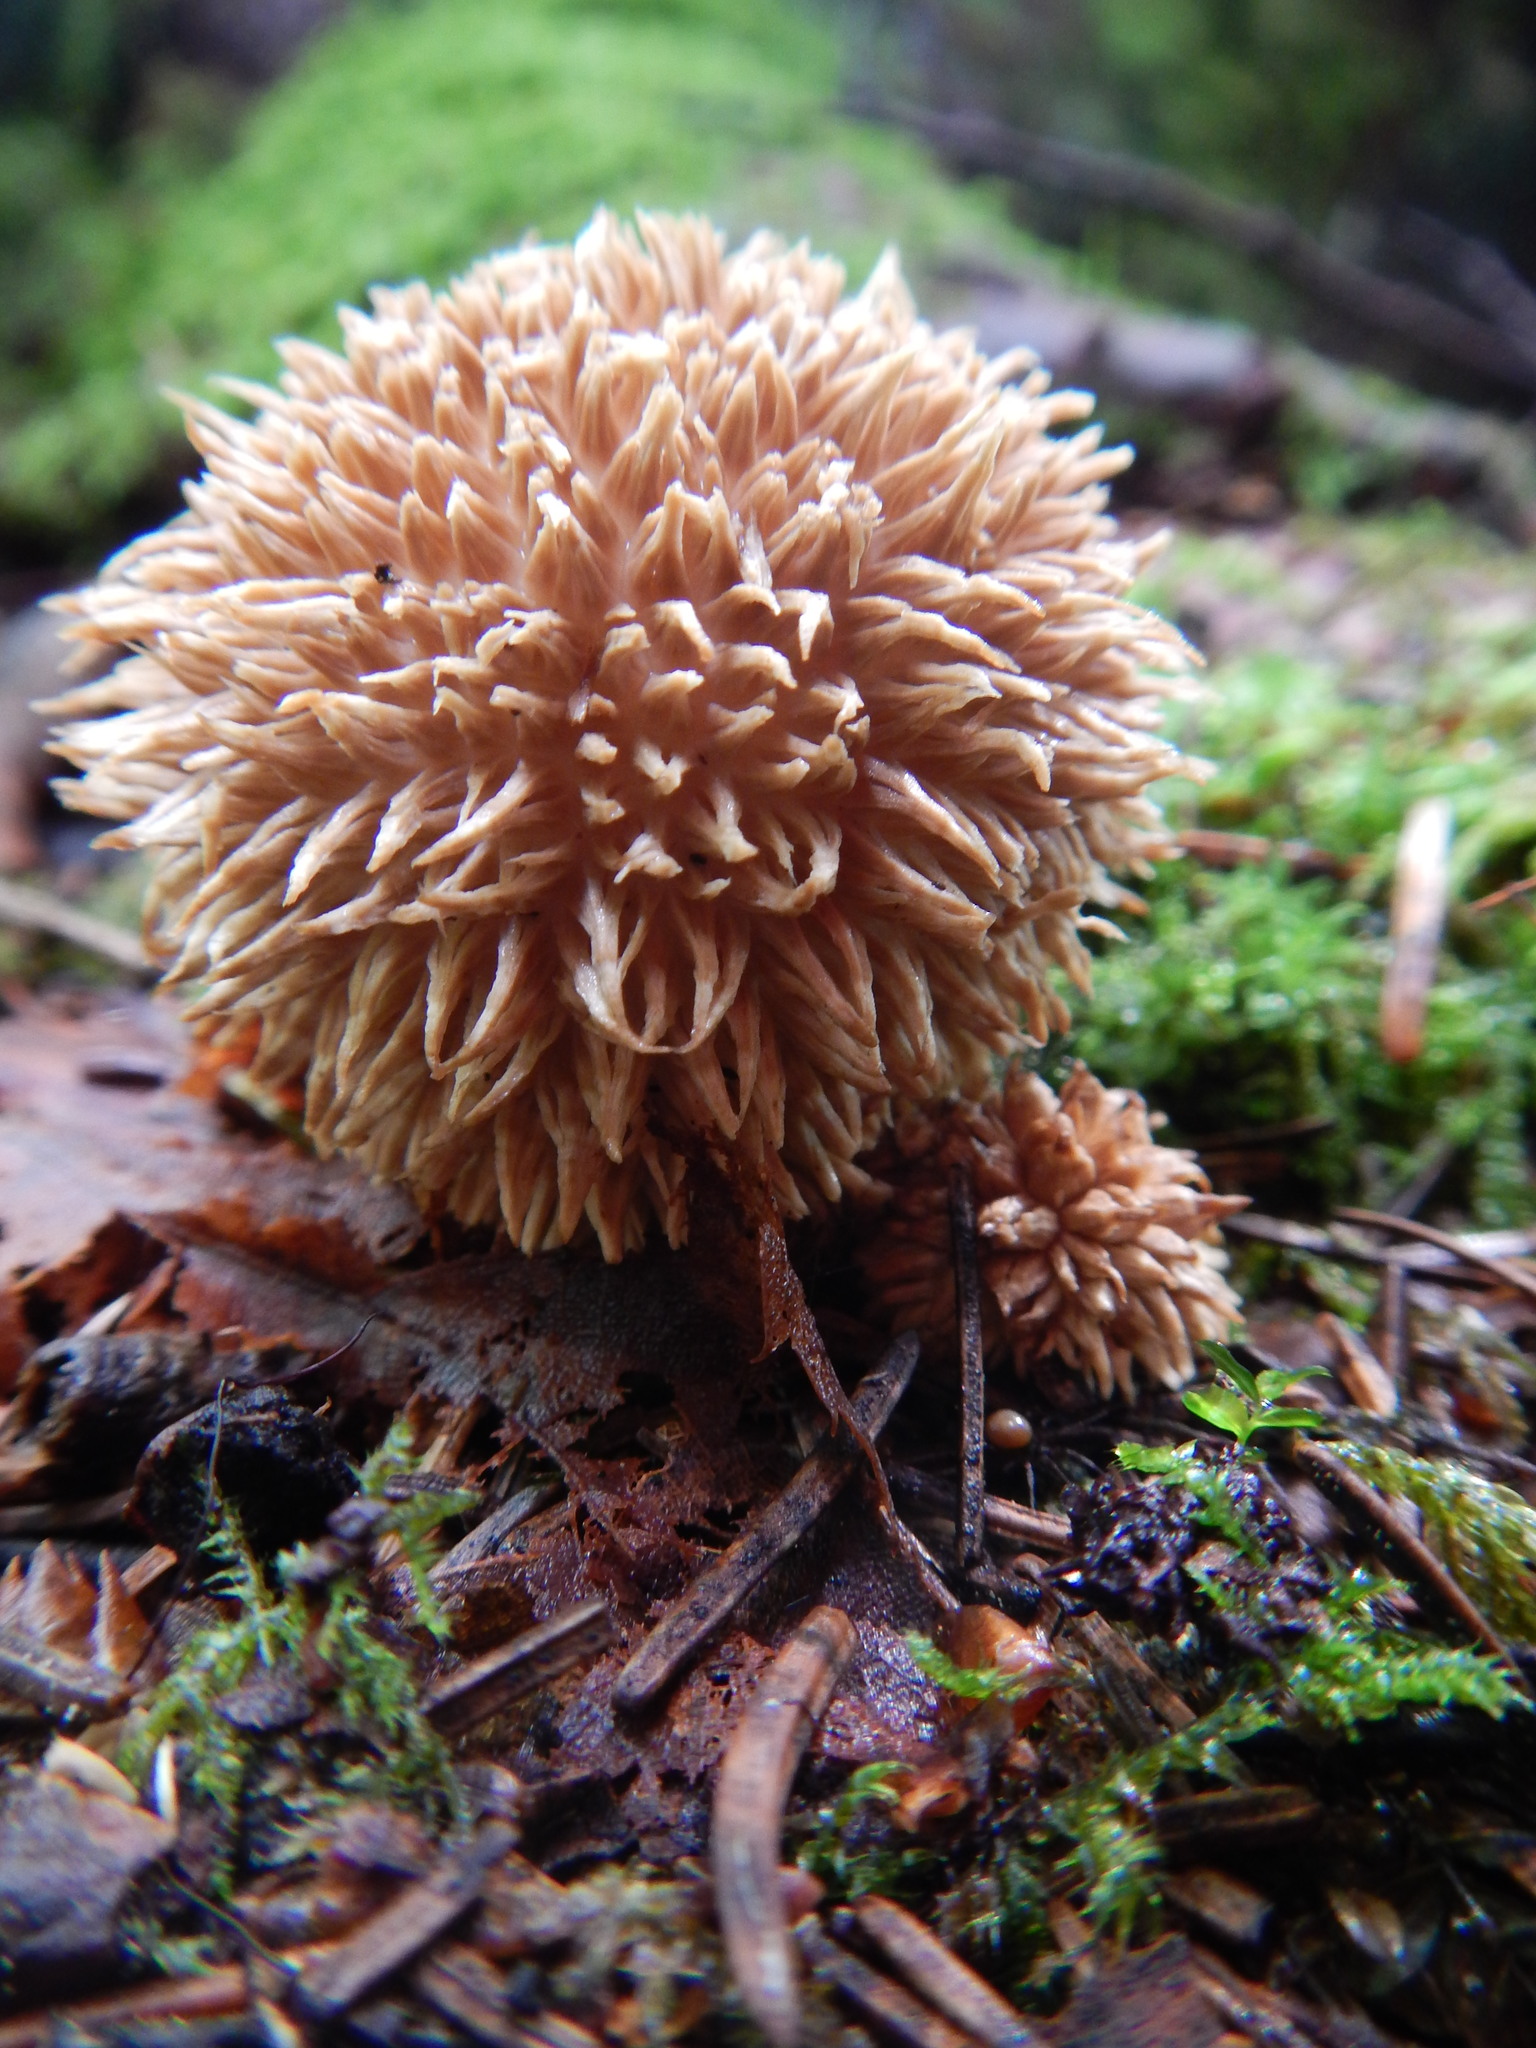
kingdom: Fungi
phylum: Basidiomycota
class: Agaricomycetes
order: Agaricales
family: Lycoperdaceae
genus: Lycoperdon
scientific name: Lycoperdon echinatum
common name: Hedgehog puffball
